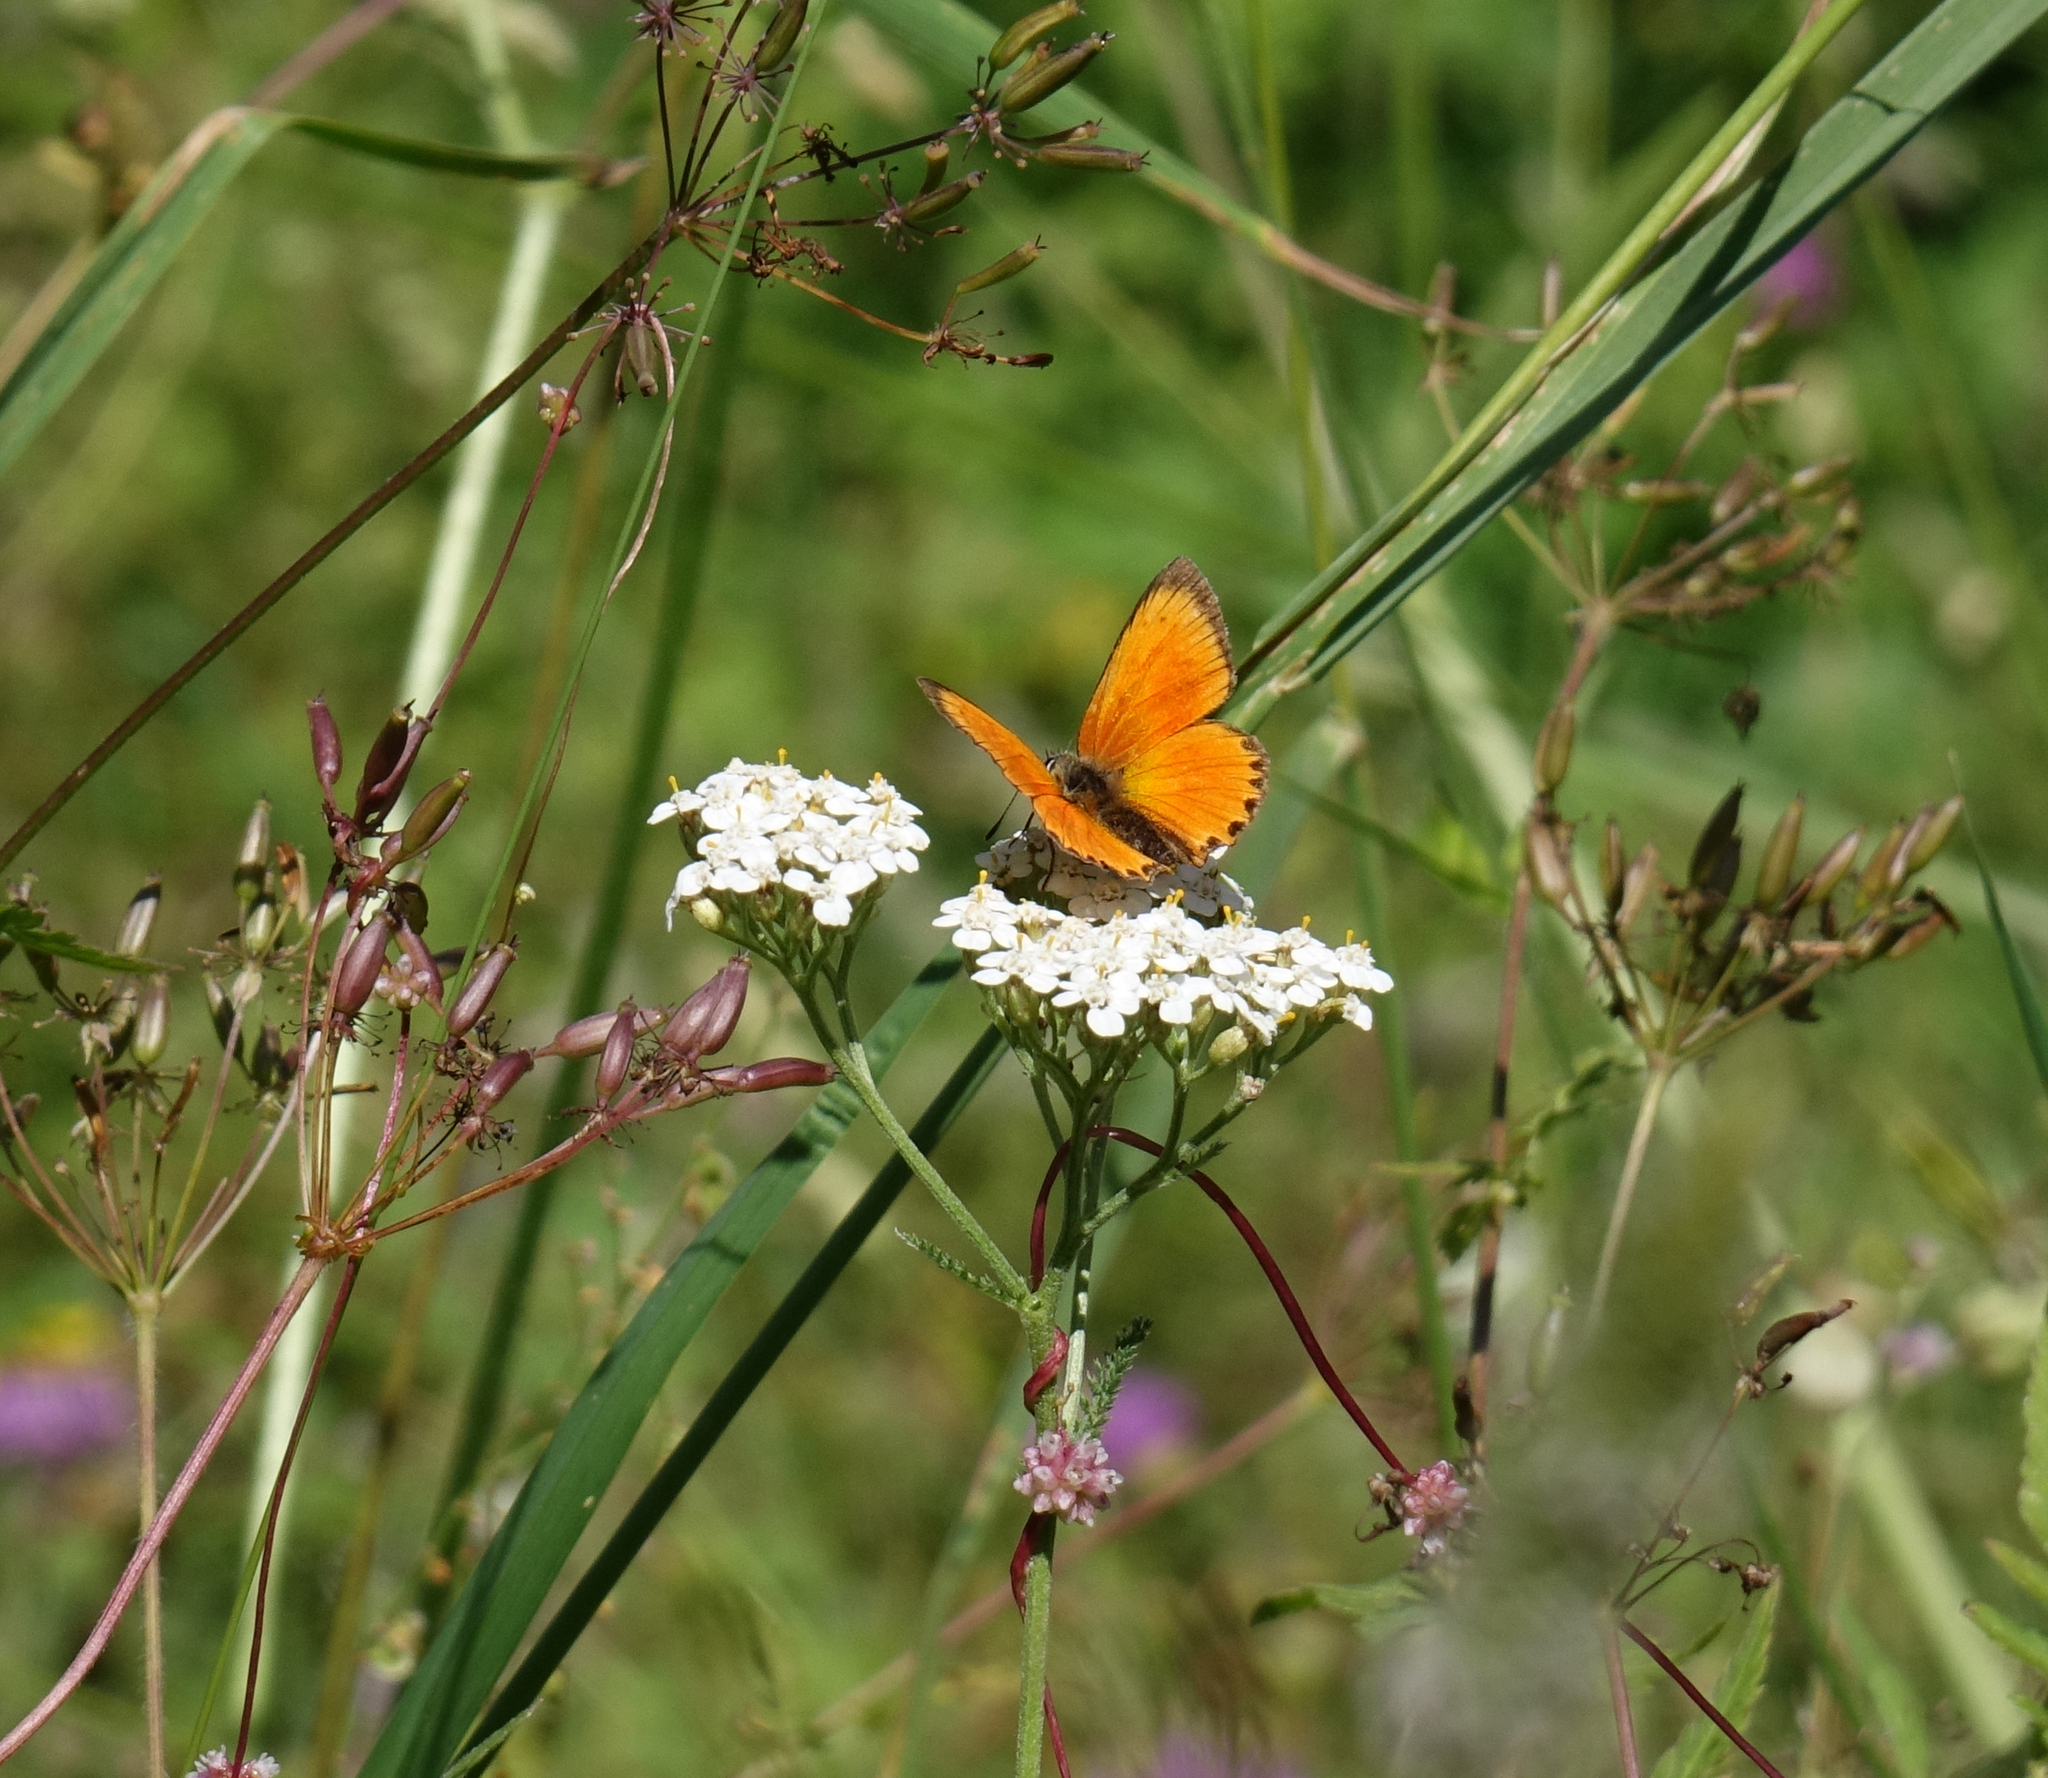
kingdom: Animalia
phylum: Arthropoda
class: Insecta
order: Lepidoptera
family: Lycaenidae
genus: Lycaena
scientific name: Lycaena virgaureae
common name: Scarce copper
